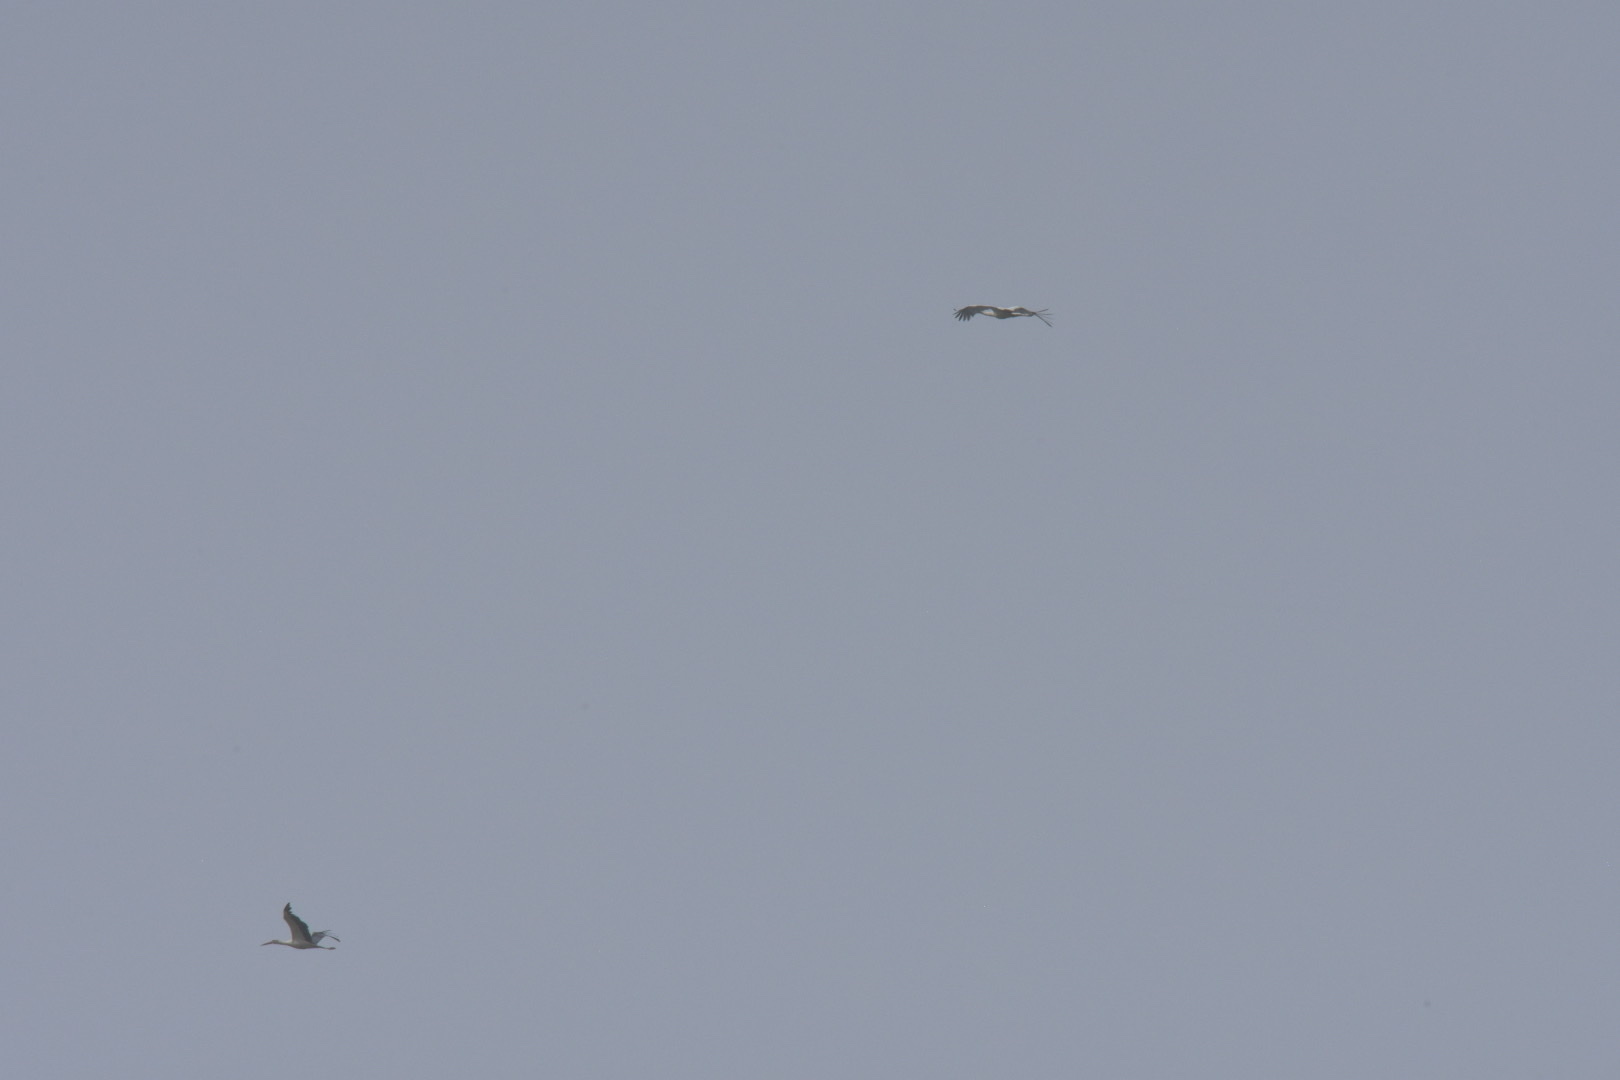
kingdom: Animalia
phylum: Chordata
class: Aves
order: Ciconiiformes
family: Ciconiidae
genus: Ciconia
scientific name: Ciconia ciconia
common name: White stork
